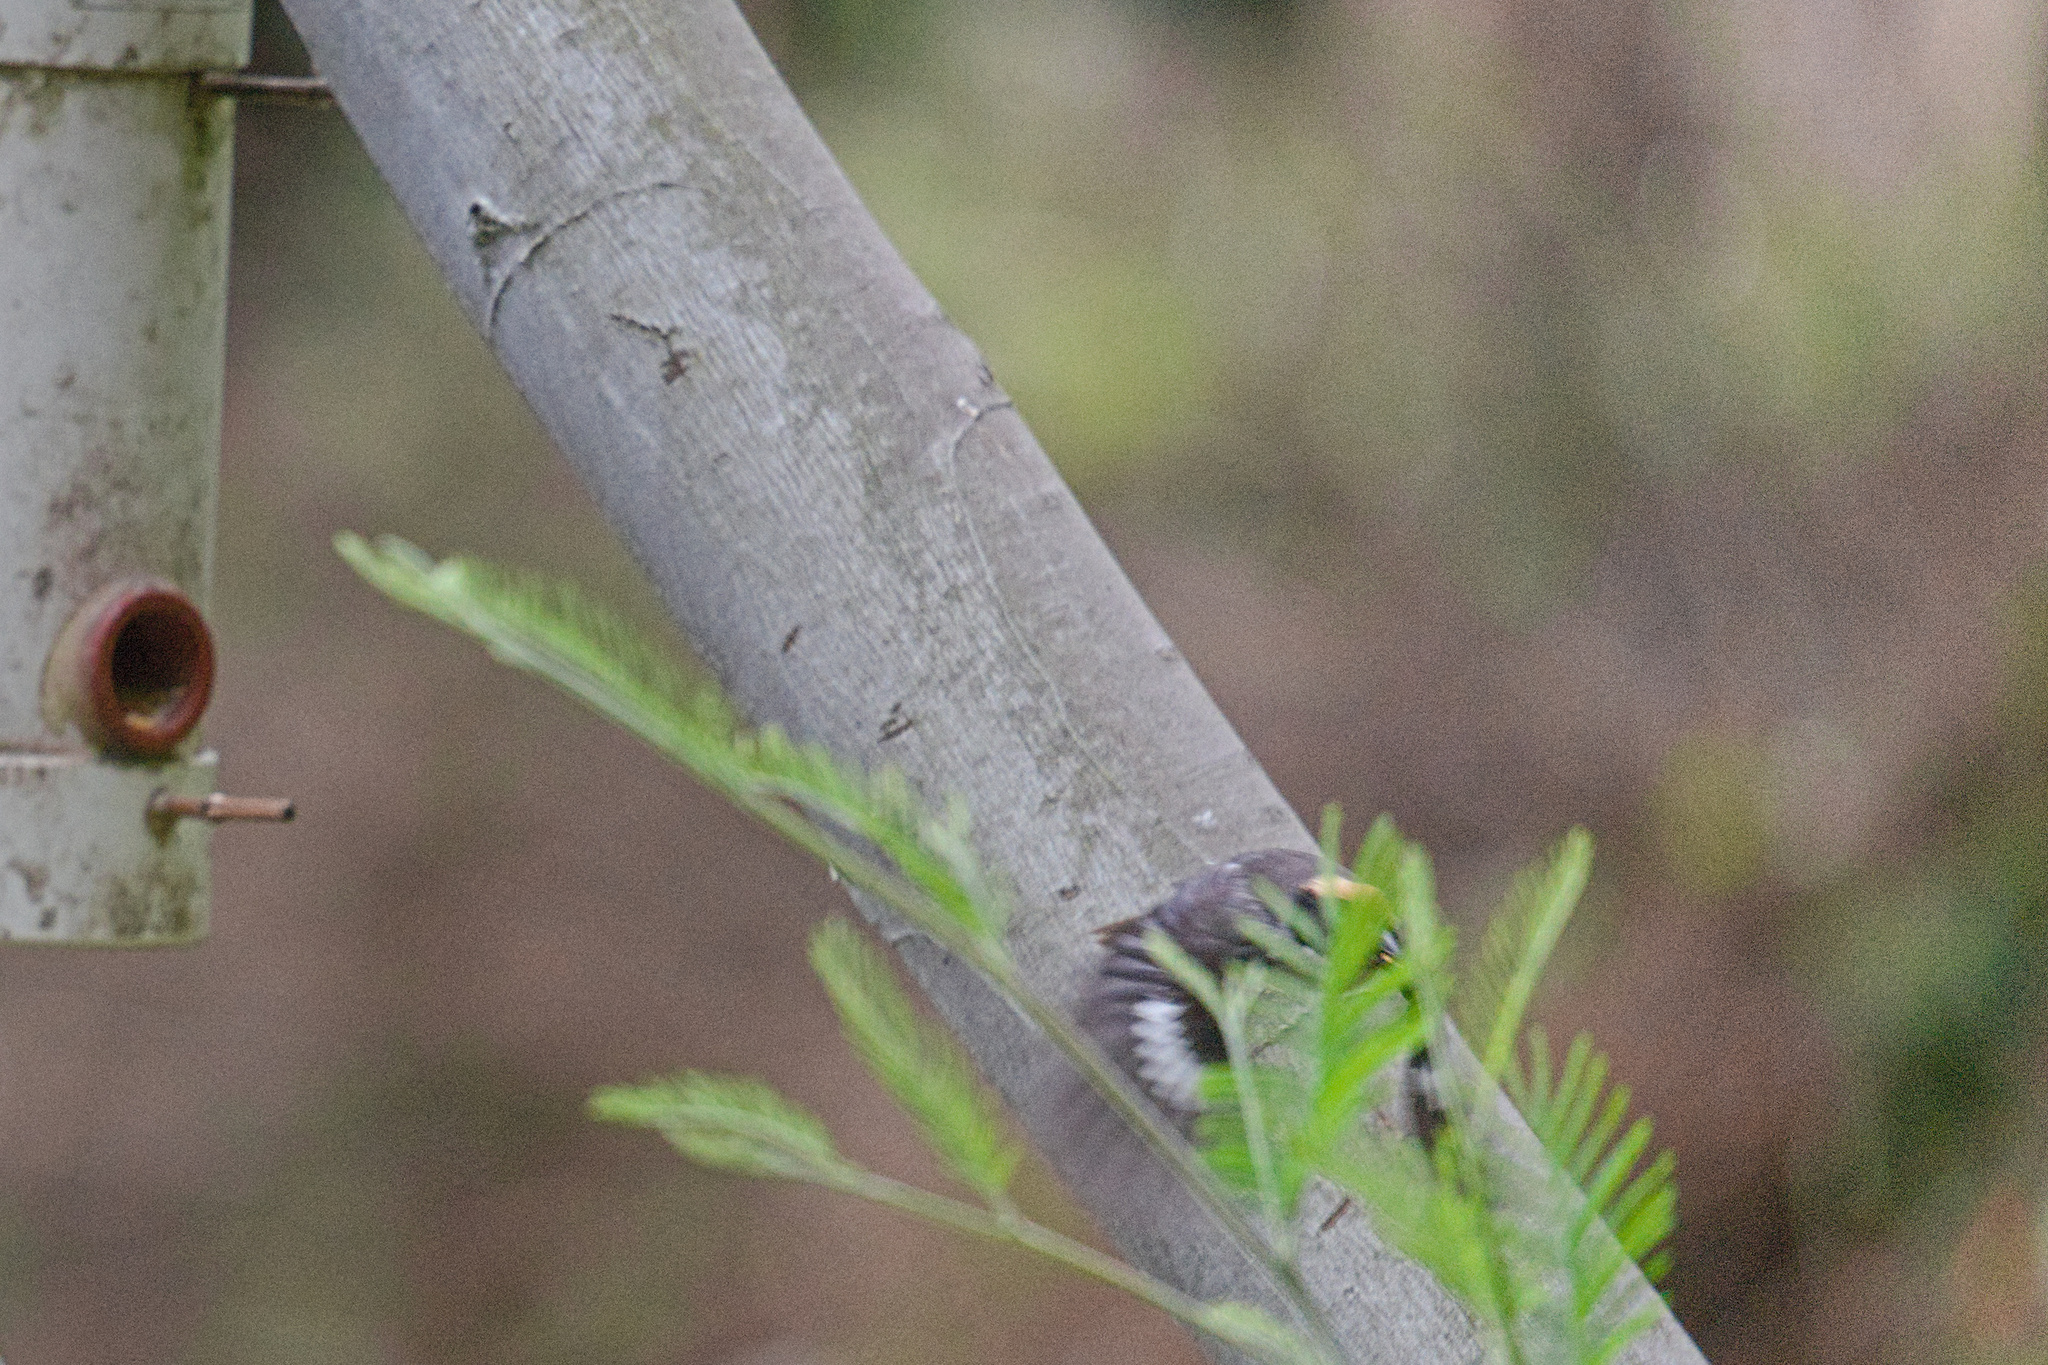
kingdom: Animalia
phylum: Chordata
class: Aves
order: Passeriformes
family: Passerellidae
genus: Atlapetes
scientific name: Atlapetes leucopterus
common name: White-winged brushfinch
